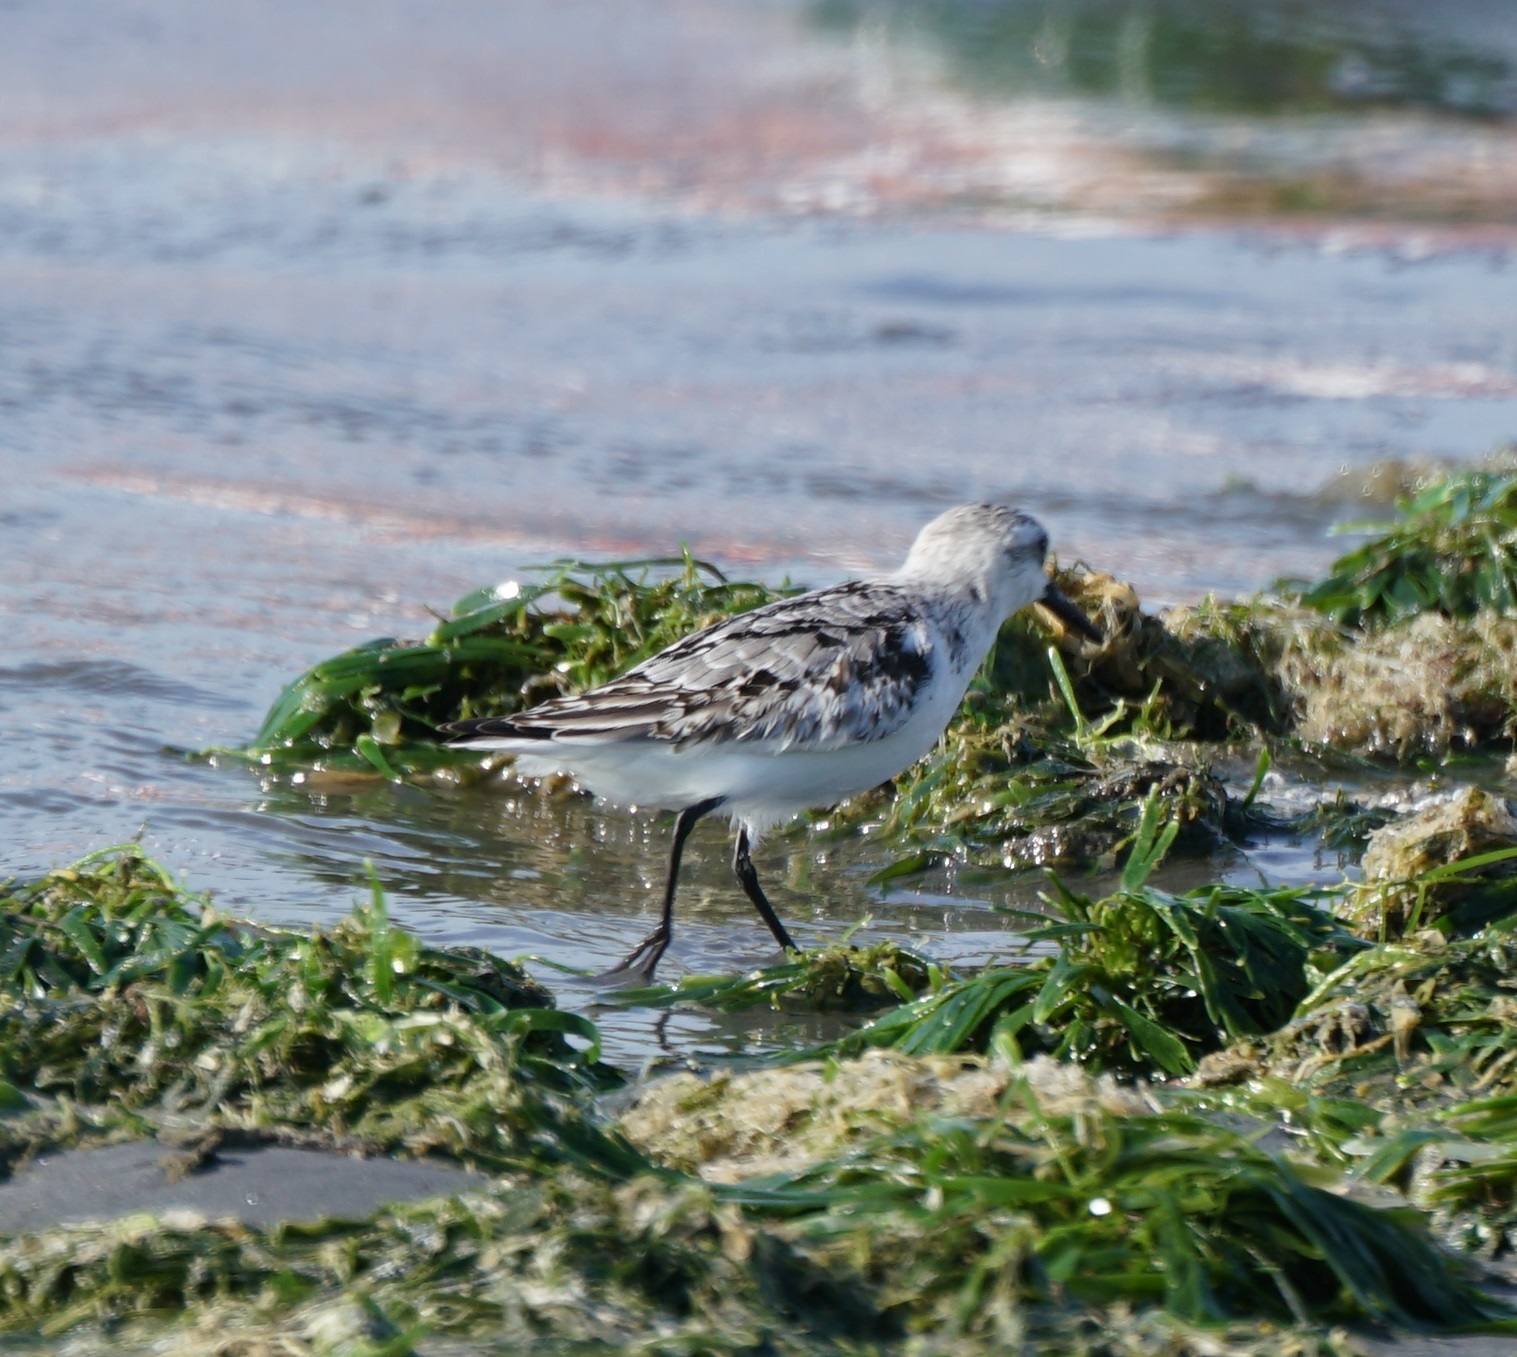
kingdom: Animalia
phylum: Chordata
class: Aves
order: Charadriiformes
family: Scolopacidae
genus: Calidris
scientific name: Calidris alba
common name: Sanderling
